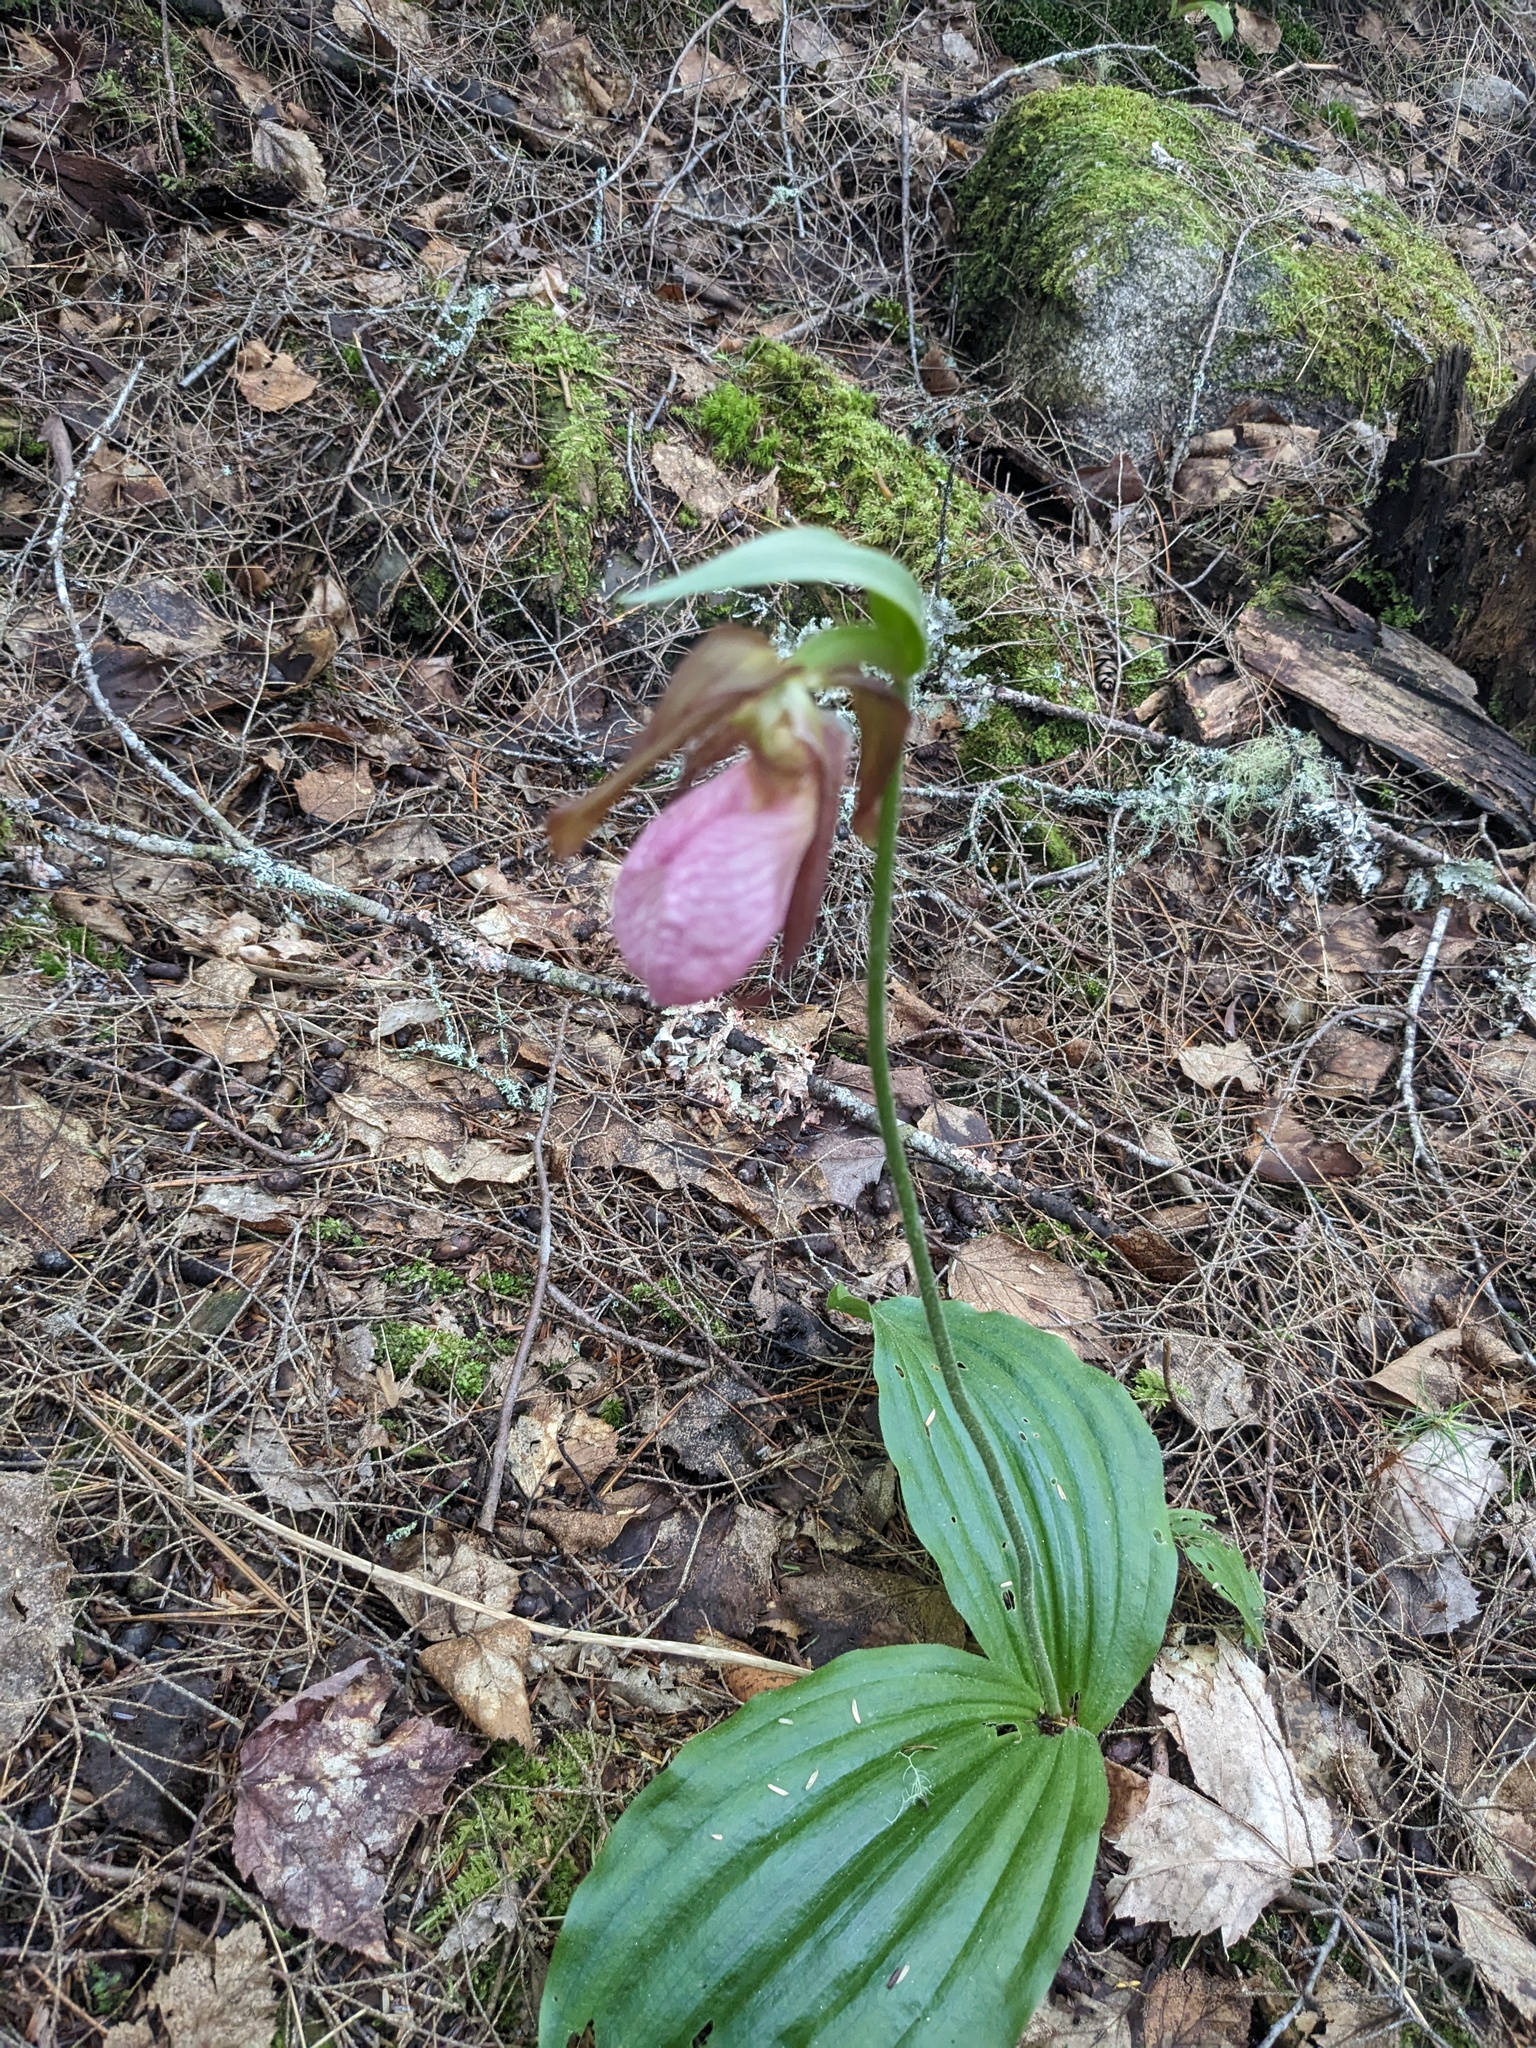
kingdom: Plantae
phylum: Tracheophyta
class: Liliopsida
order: Asparagales
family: Orchidaceae
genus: Cypripedium
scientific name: Cypripedium acaule
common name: Pink lady's-slipper
